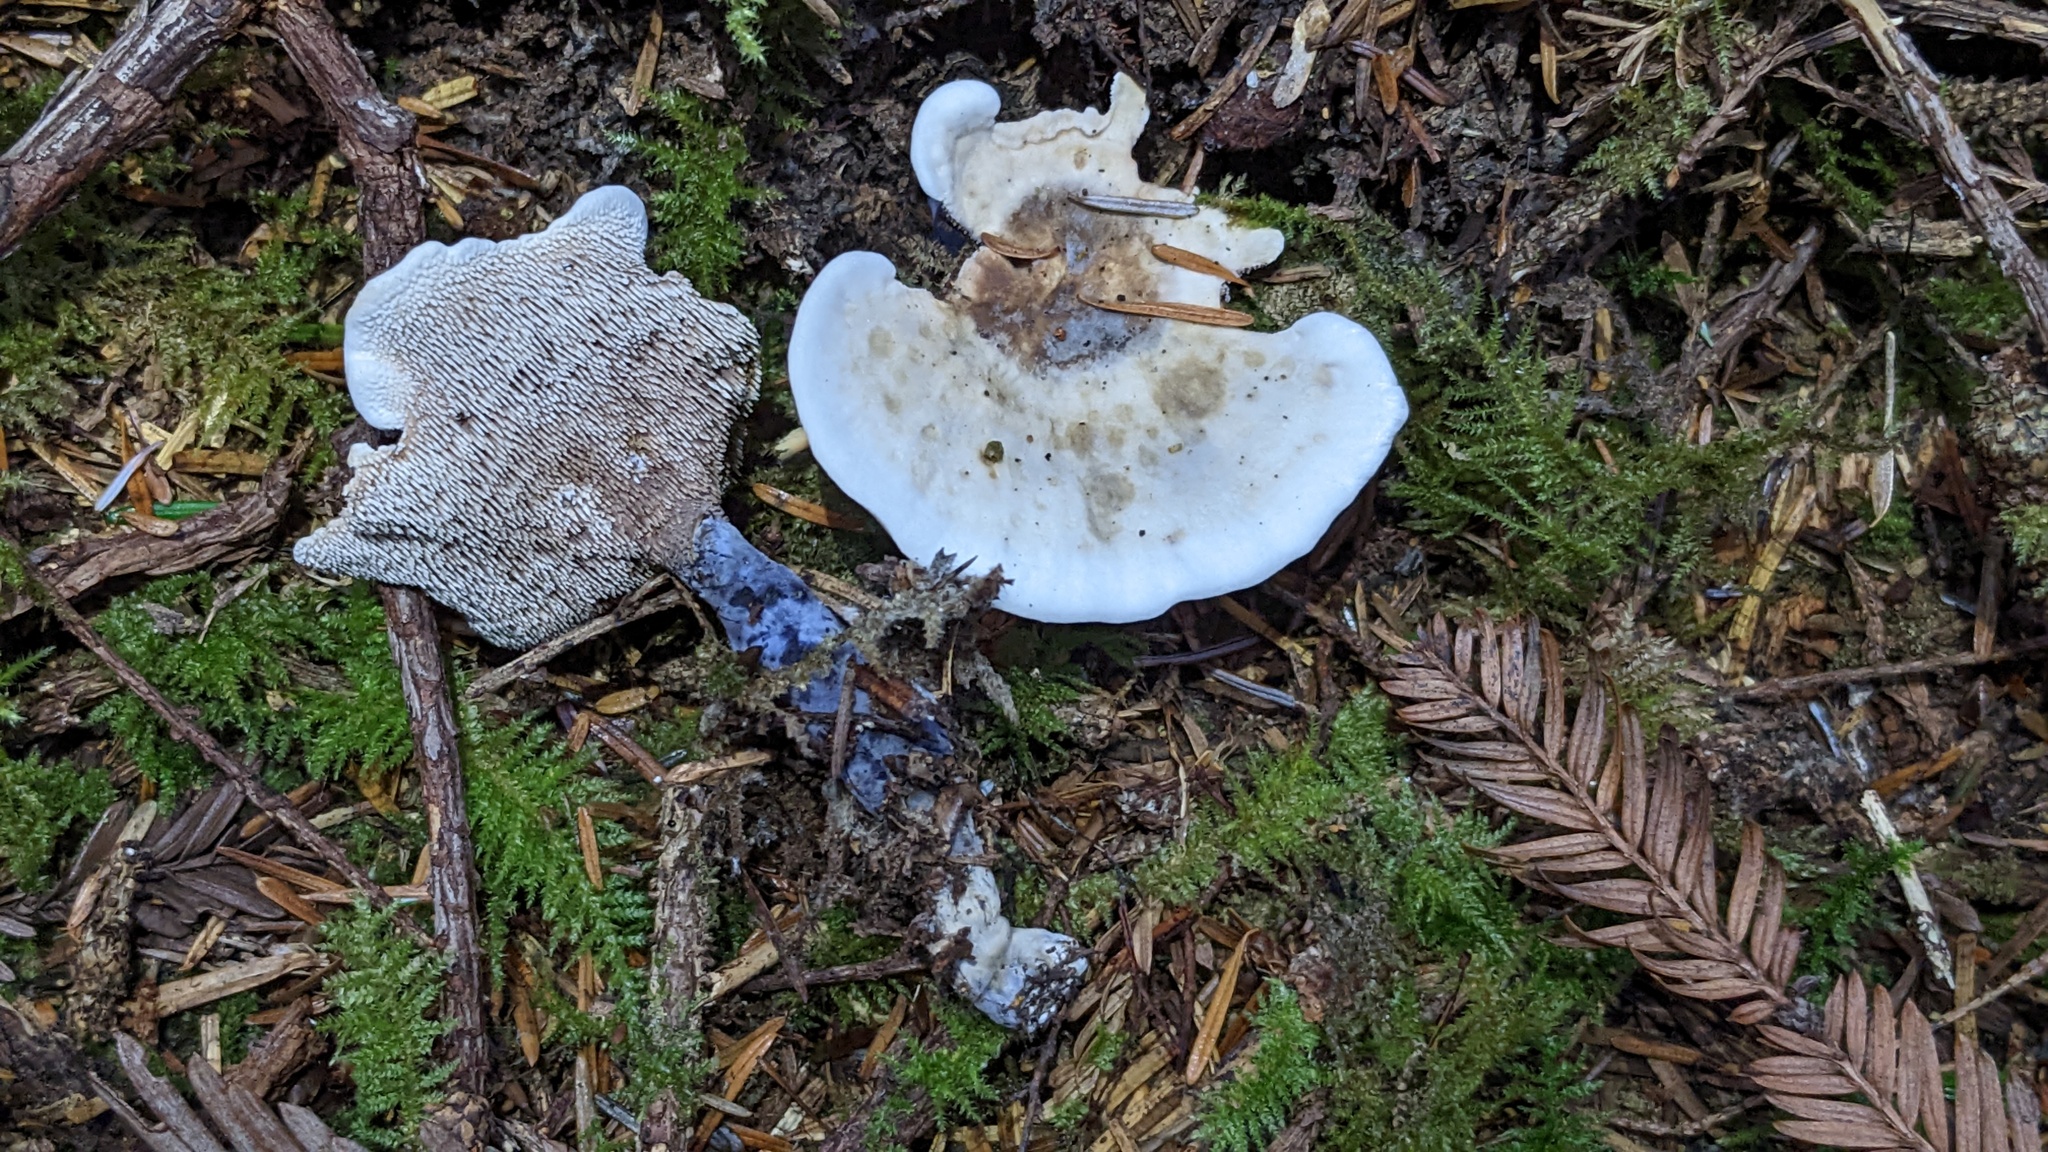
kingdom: Fungi
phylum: Basidiomycota
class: Agaricomycetes
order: Thelephorales
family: Bankeraceae
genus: Hydnellum
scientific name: Hydnellum suaveolens
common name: Sweetgrass hydnellum
